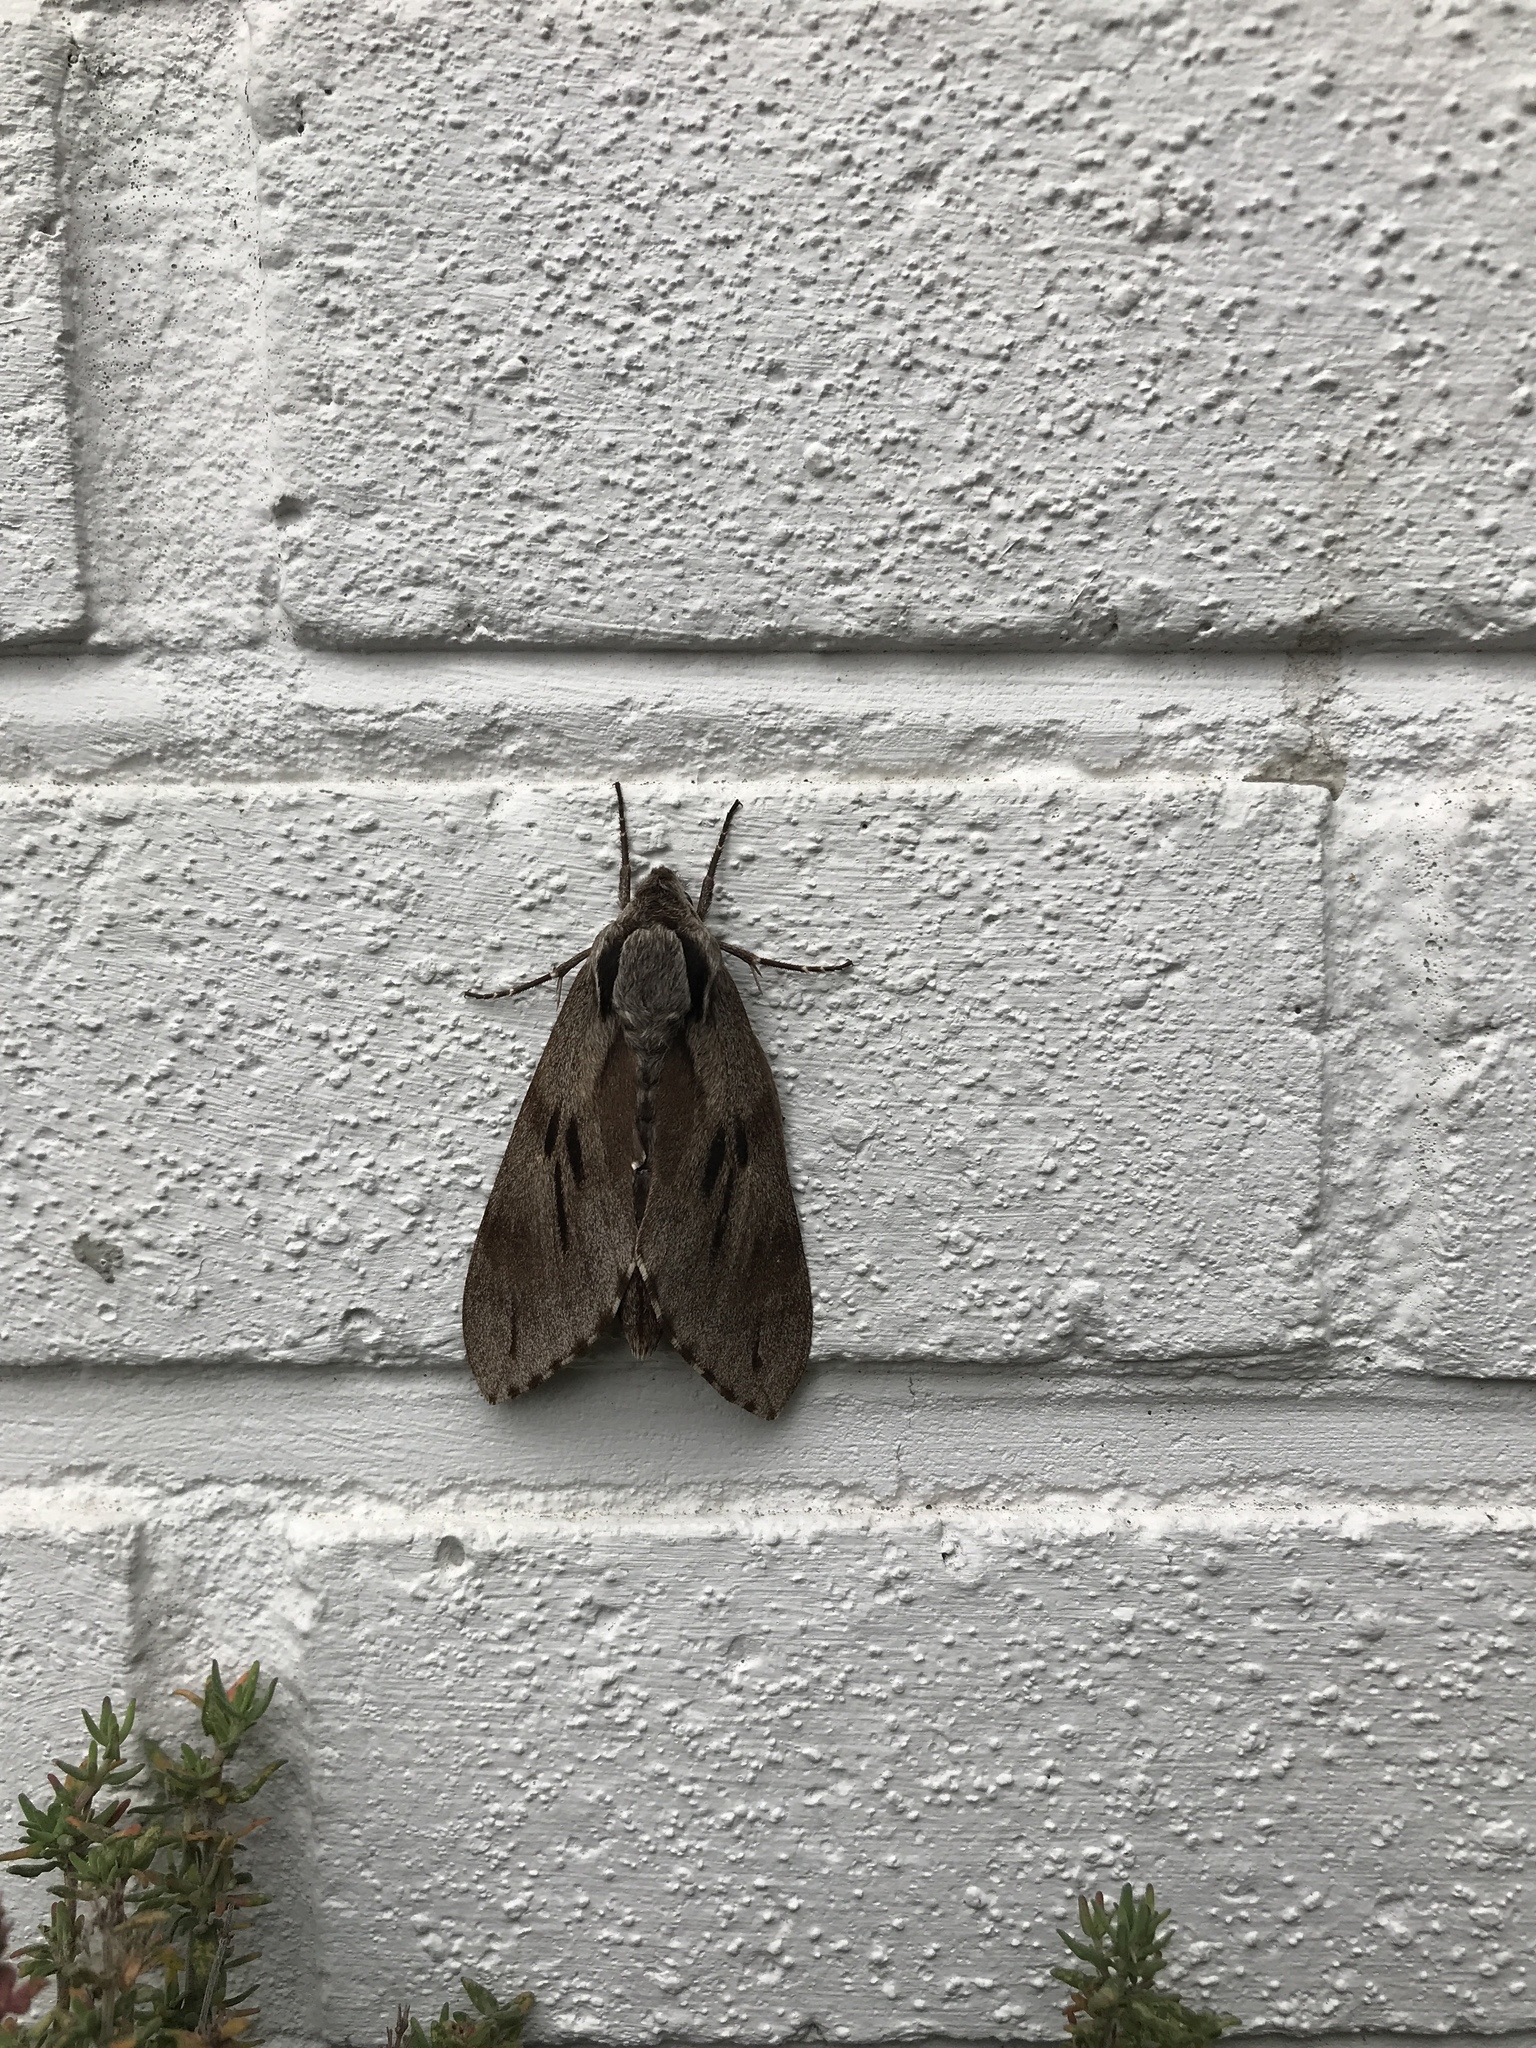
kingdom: Animalia
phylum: Arthropoda
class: Insecta
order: Lepidoptera
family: Sphingidae
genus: Sphinx
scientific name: Sphinx pinastri
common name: Pine hawk-moth
